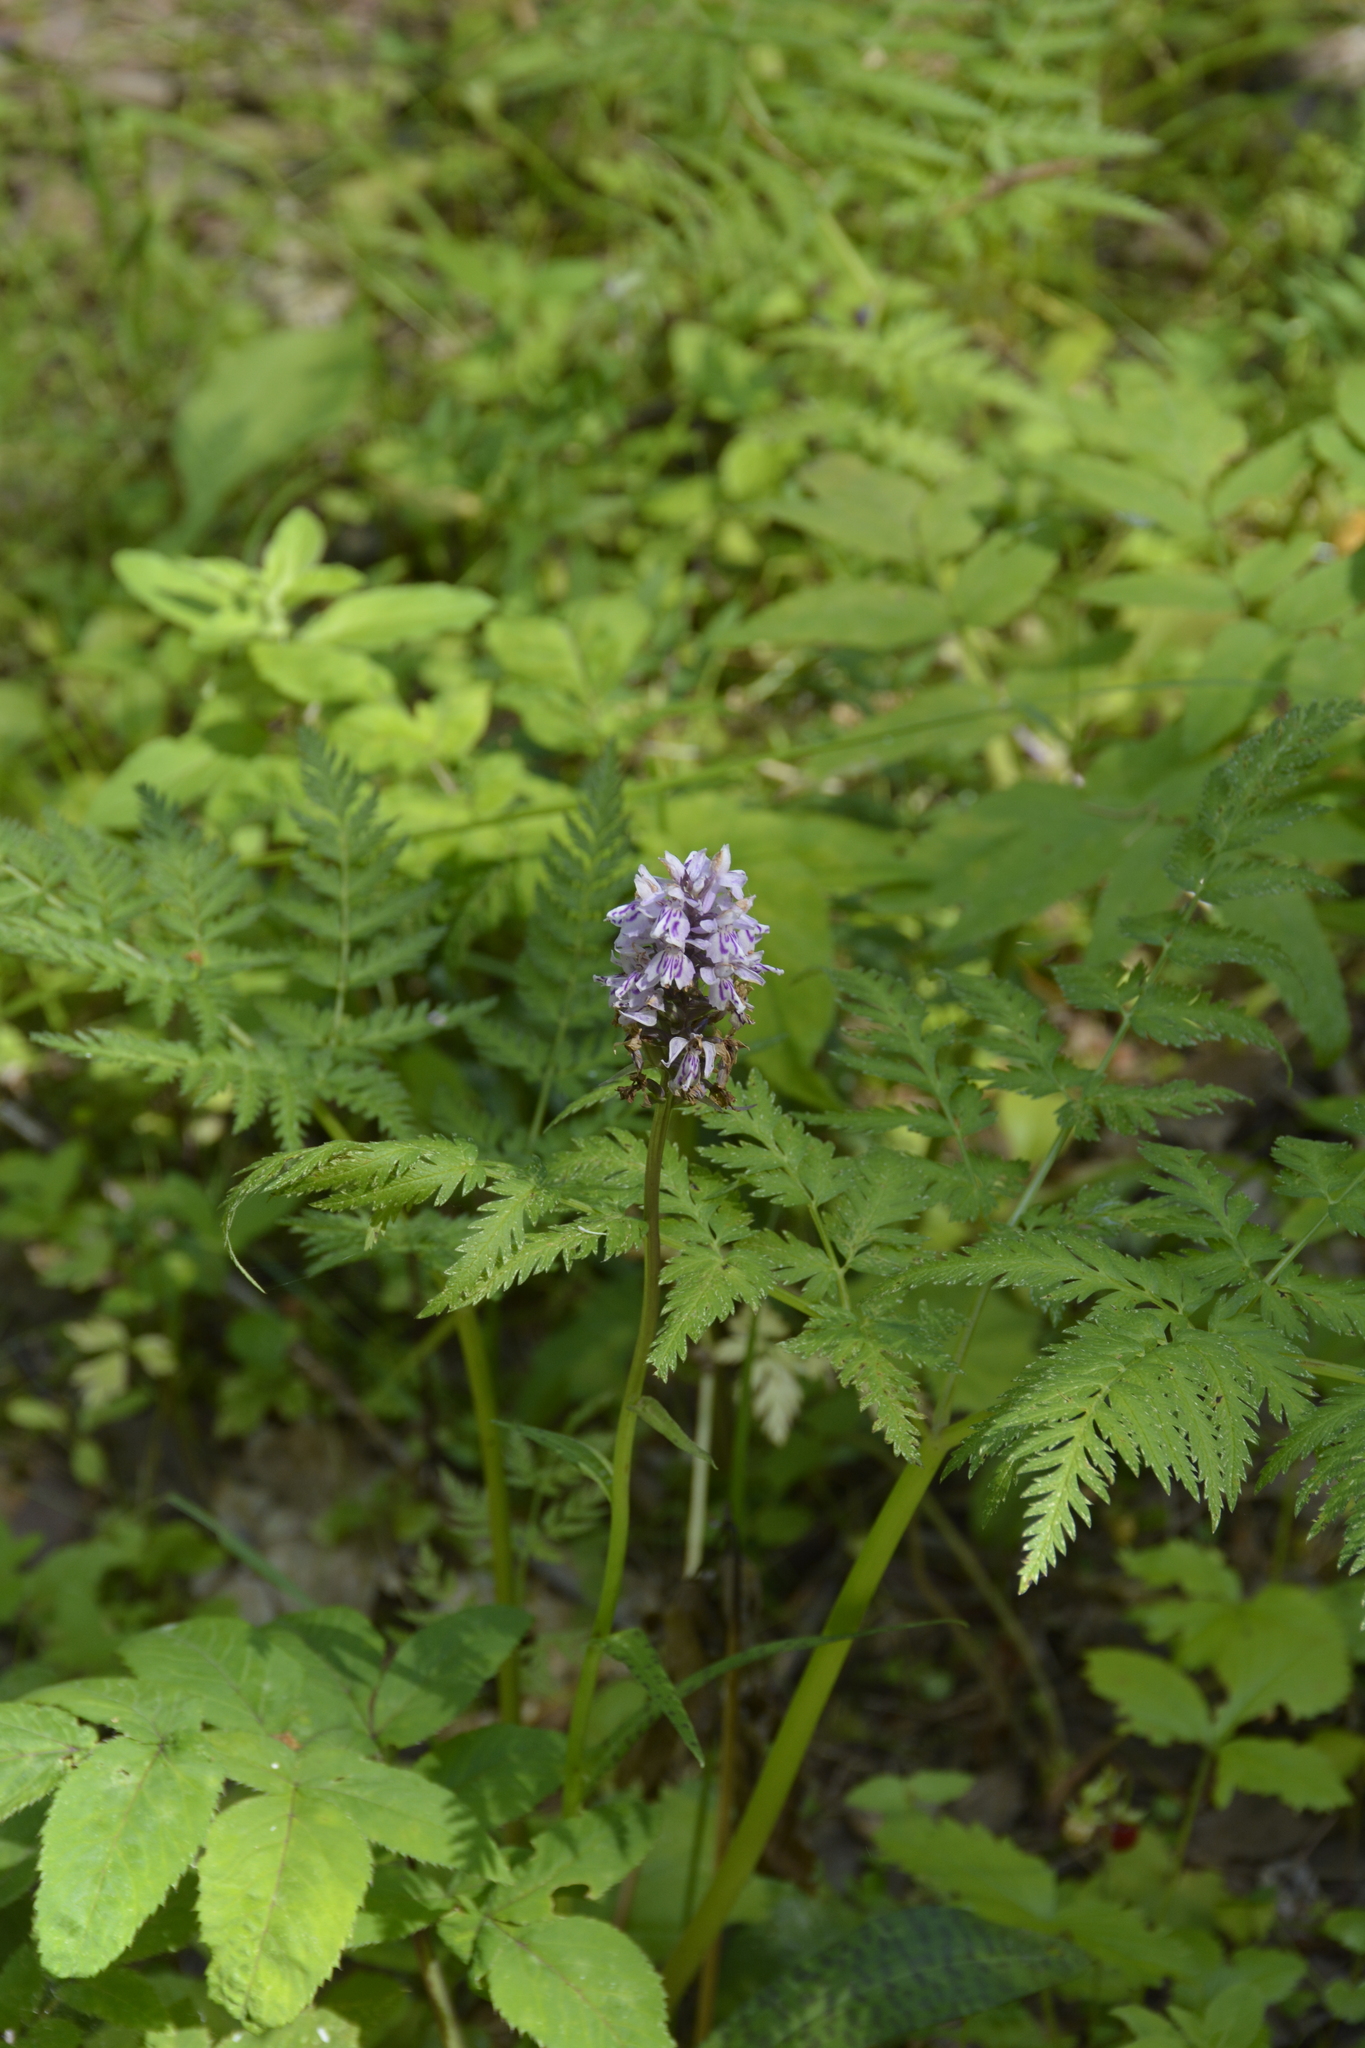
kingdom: Plantae
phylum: Tracheophyta
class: Liliopsida
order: Asparagales
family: Orchidaceae
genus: Dactylorhiza
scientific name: Dactylorhiza maculata
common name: Heath spotted-orchid
